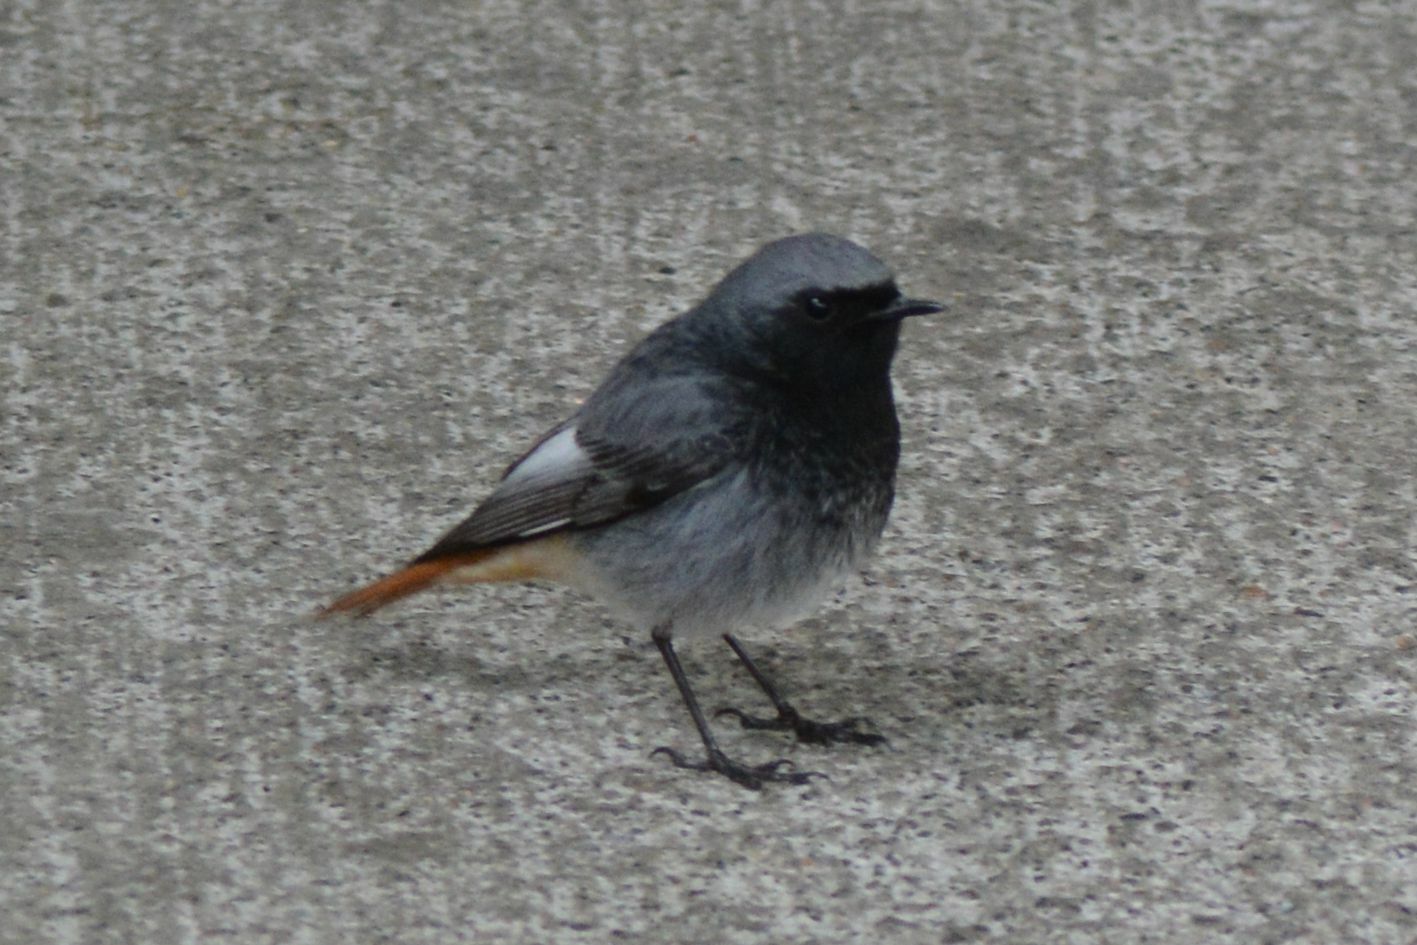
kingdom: Animalia
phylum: Chordata
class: Aves
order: Passeriformes
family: Muscicapidae
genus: Phoenicurus
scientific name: Phoenicurus ochruros
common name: Black redstart
